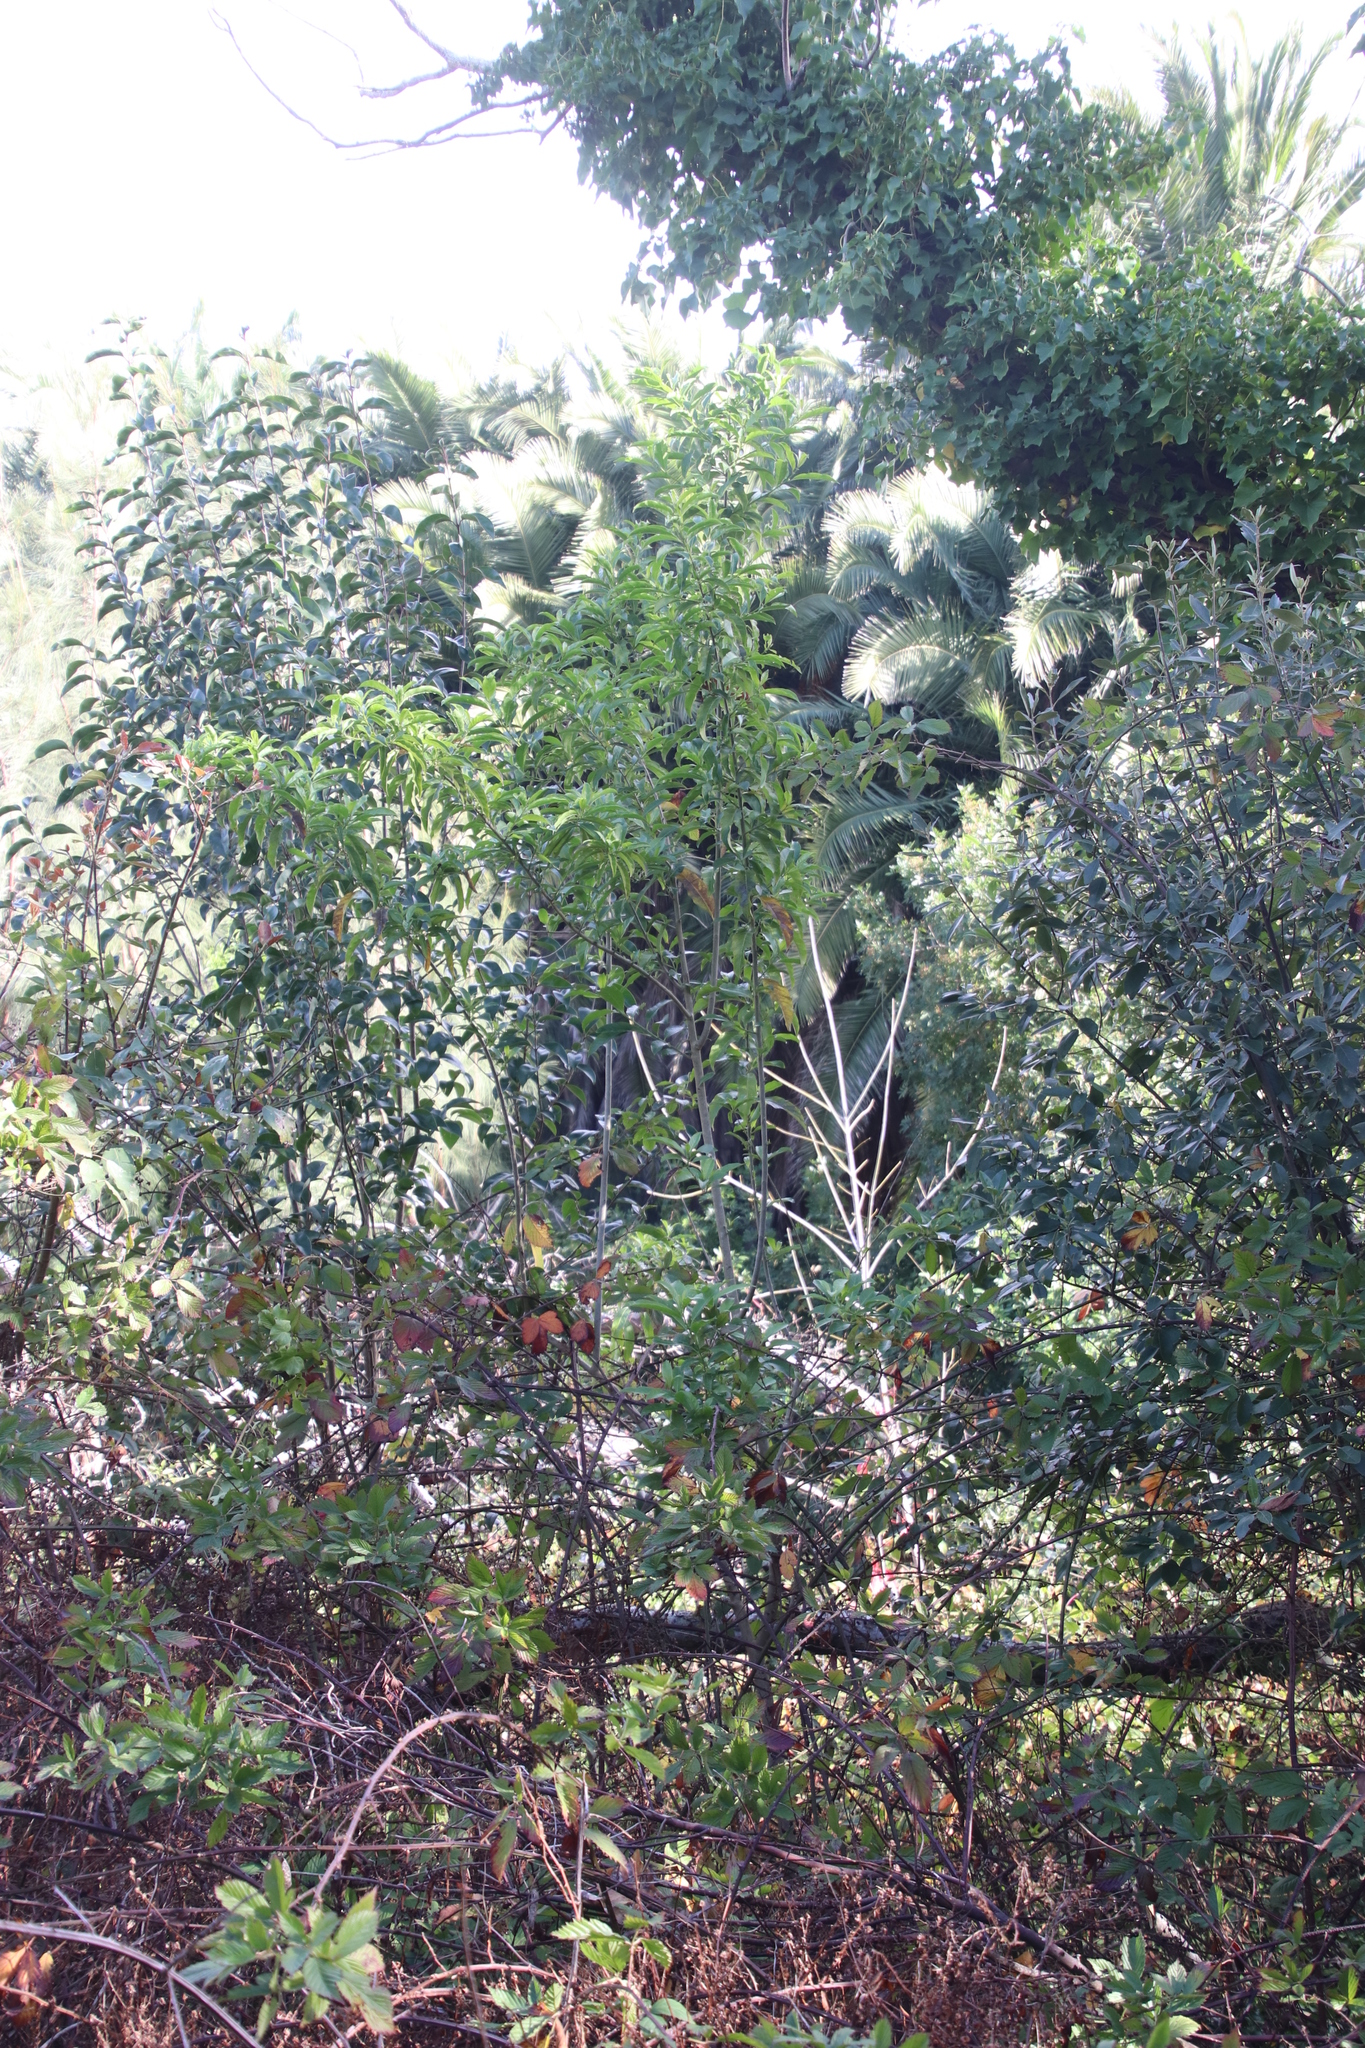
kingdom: Plantae
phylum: Tracheophyta
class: Magnoliopsida
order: Solanales
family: Solanaceae
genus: Cestrum
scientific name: Cestrum laevigatum
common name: Inkberry
